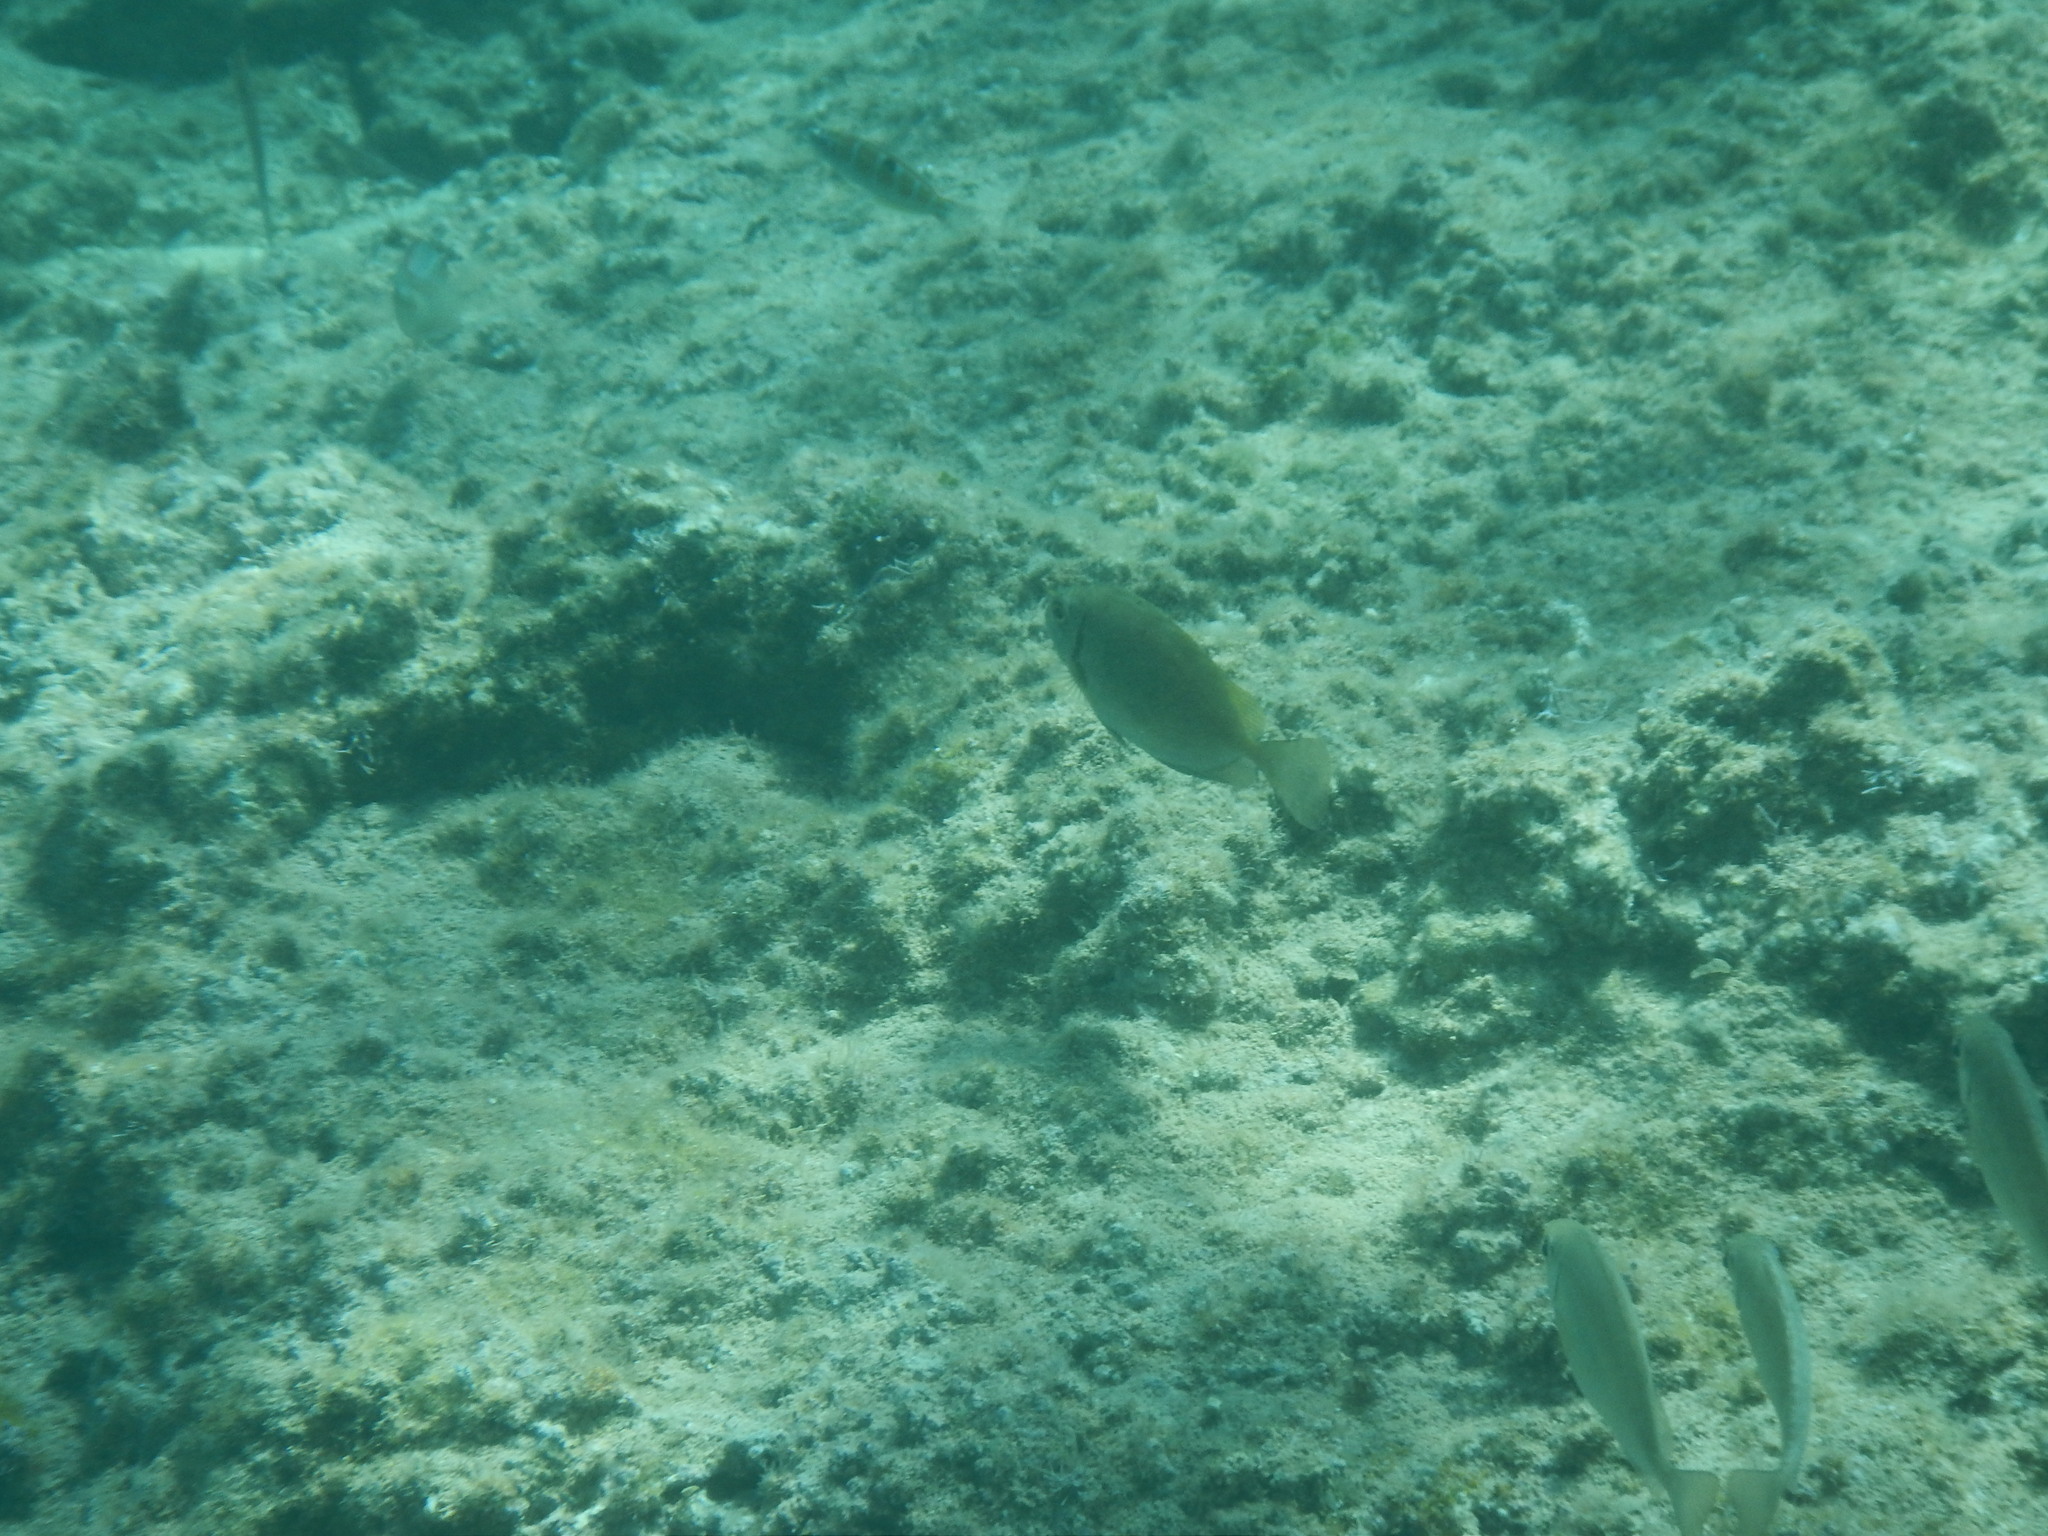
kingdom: Animalia
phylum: Chordata
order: Perciformes
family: Siganidae
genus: Siganus
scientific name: Siganus luridus
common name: Dusky spinefoot
